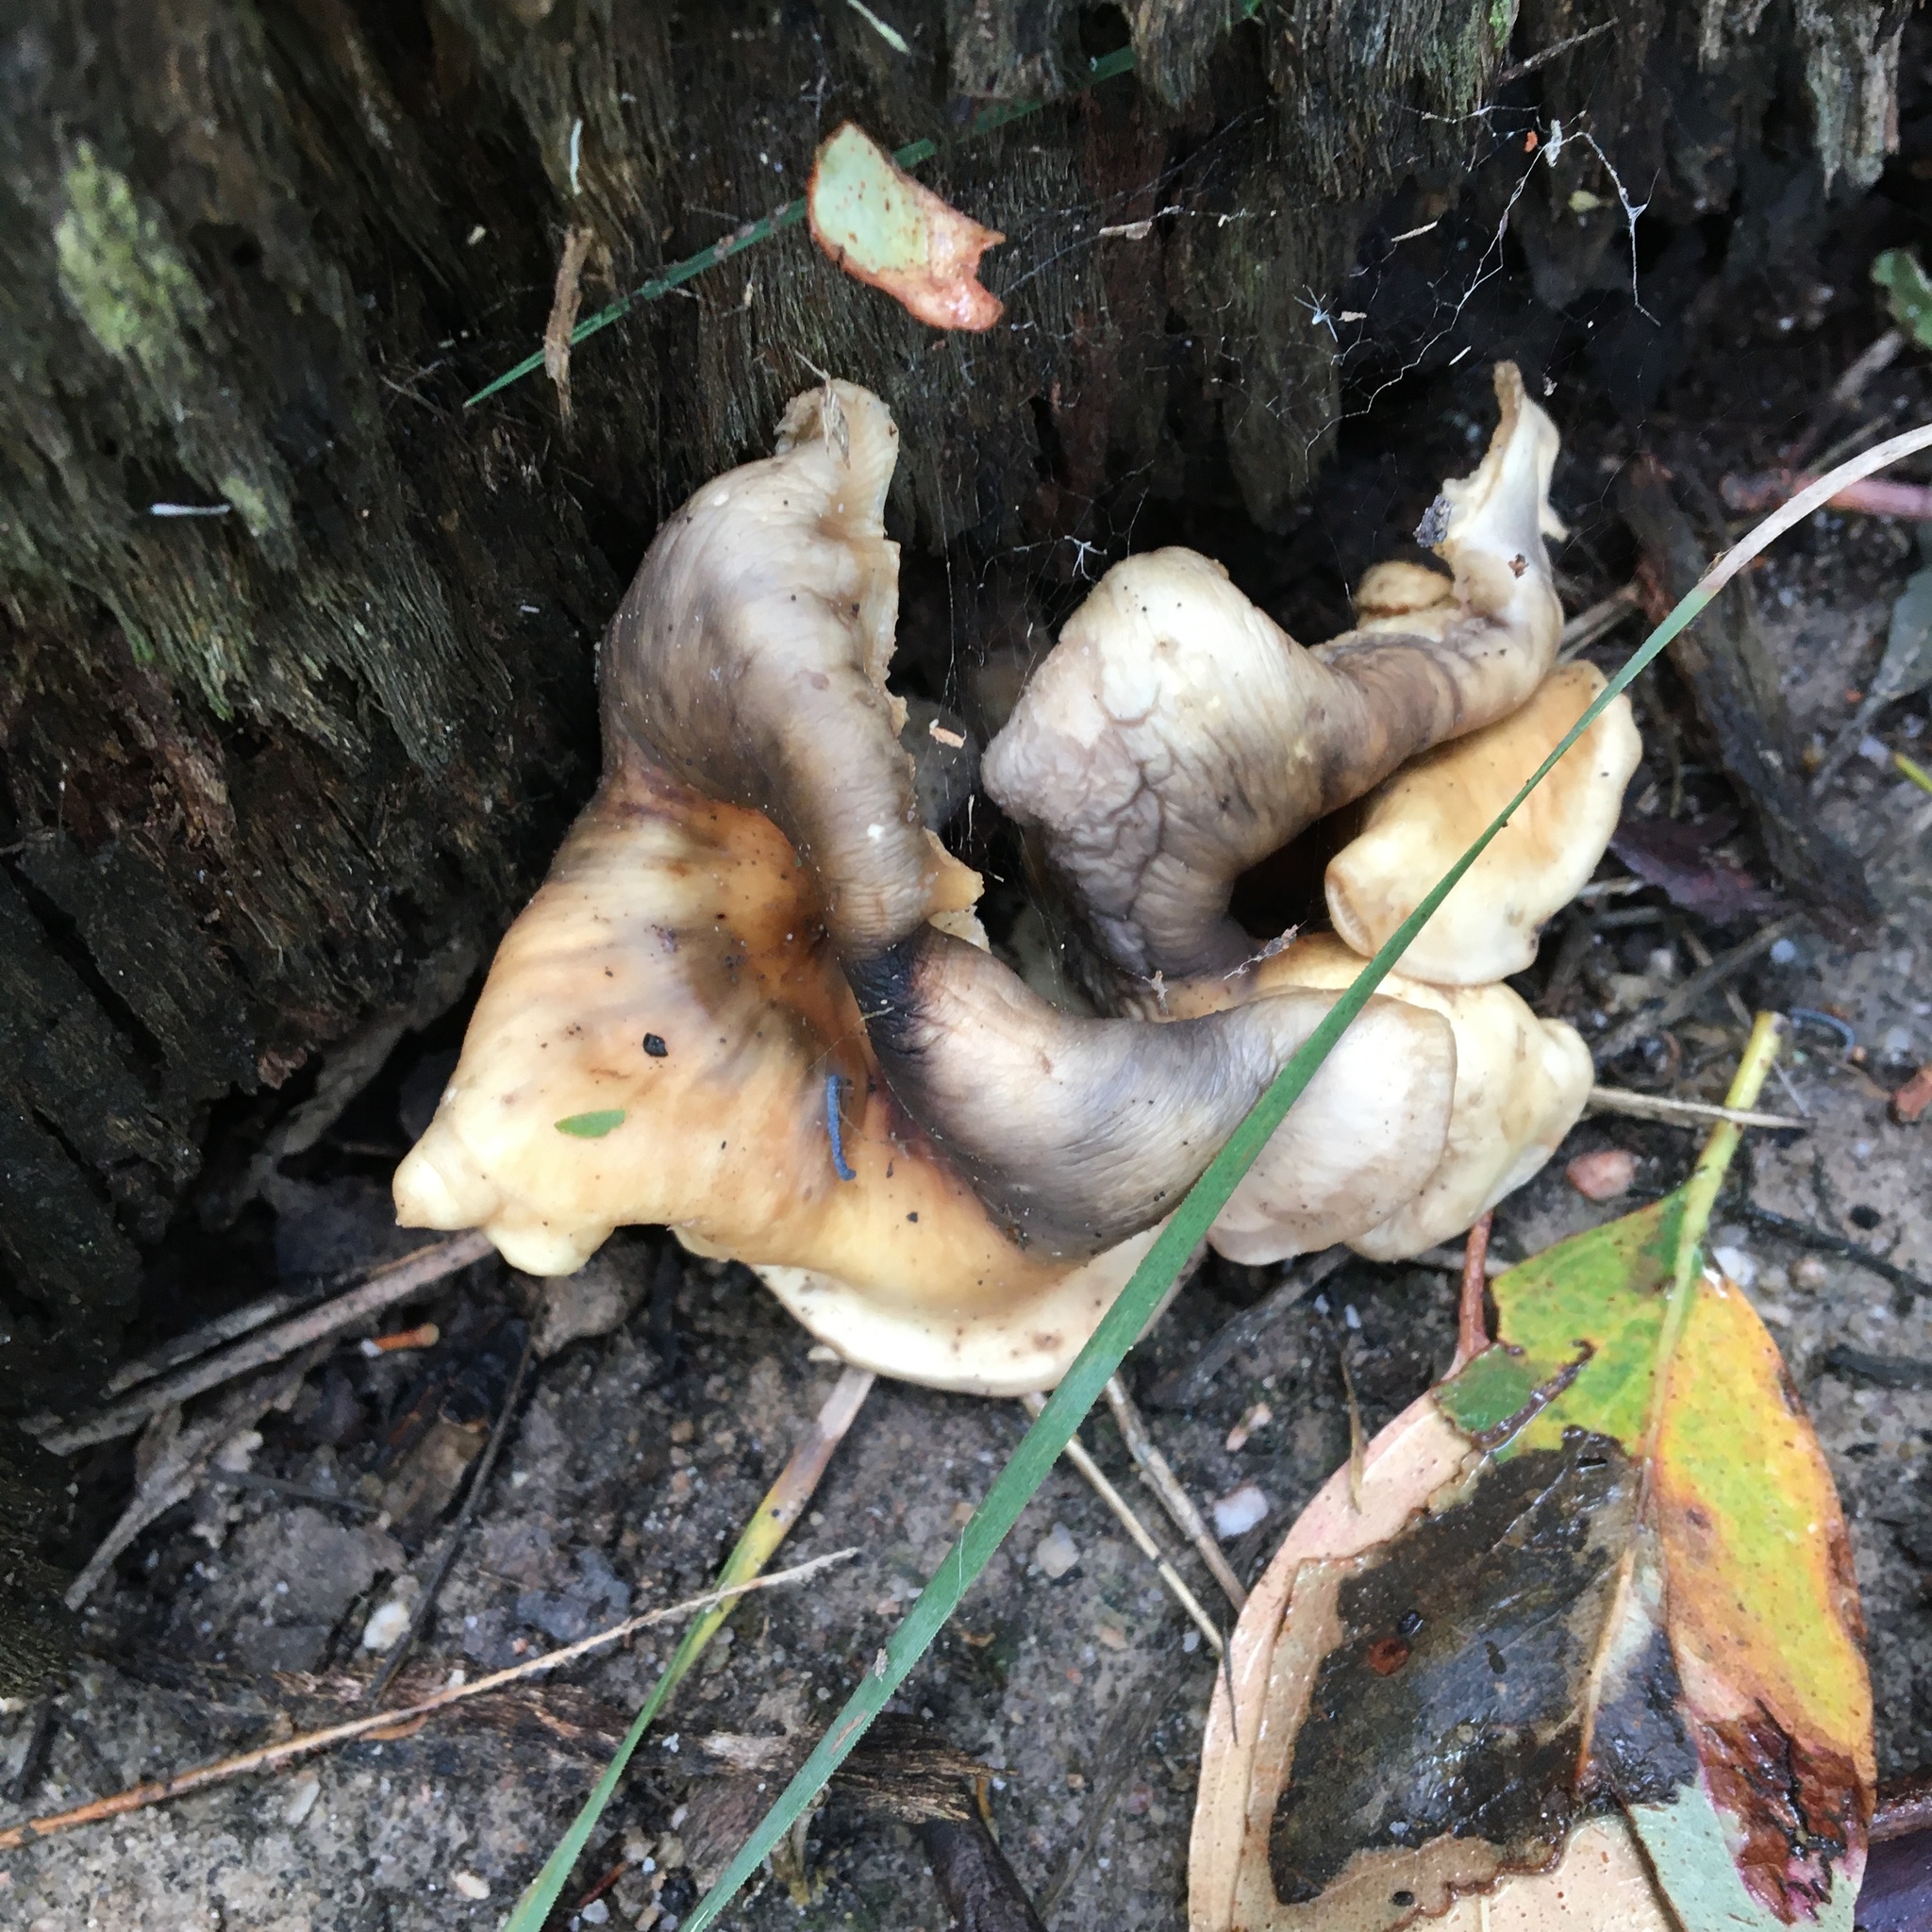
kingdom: Fungi
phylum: Basidiomycota
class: Agaricomycetes
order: Agaricales
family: Omphalotaceae
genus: Omphalotus
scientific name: Omphalotus nidiformis
